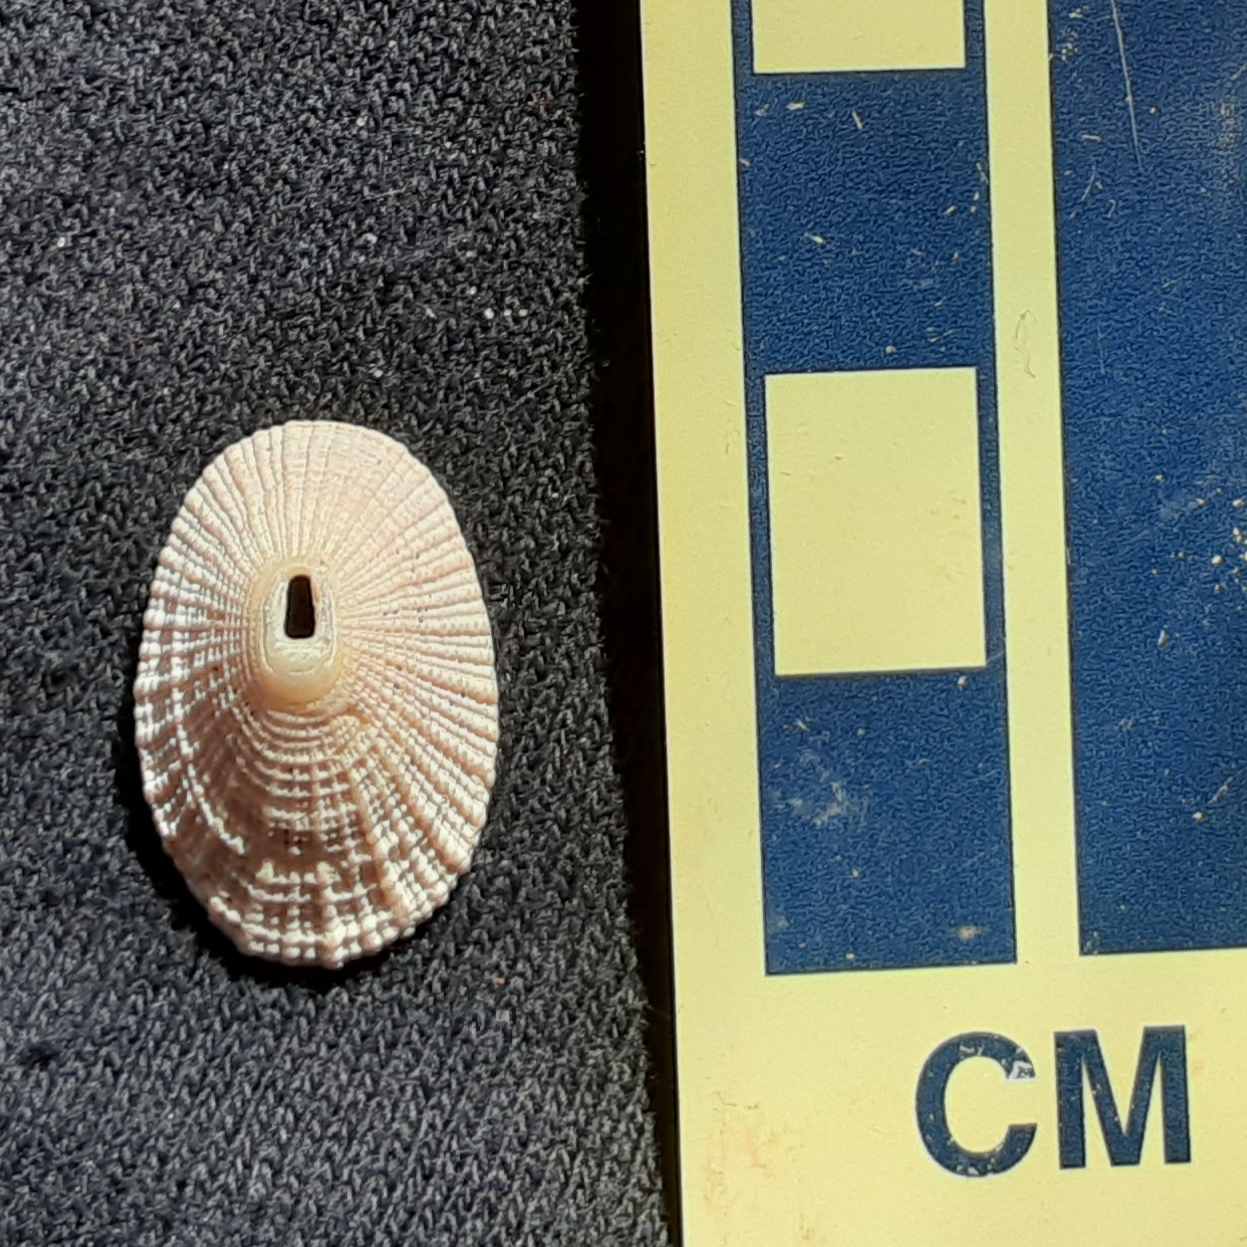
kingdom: Animalia
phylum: Mollusca
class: Gastropoda
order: Lepetellida
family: Fissurellidae
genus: Diodora
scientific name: Diodora cayenensis
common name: Cayenne keyhole limpet
